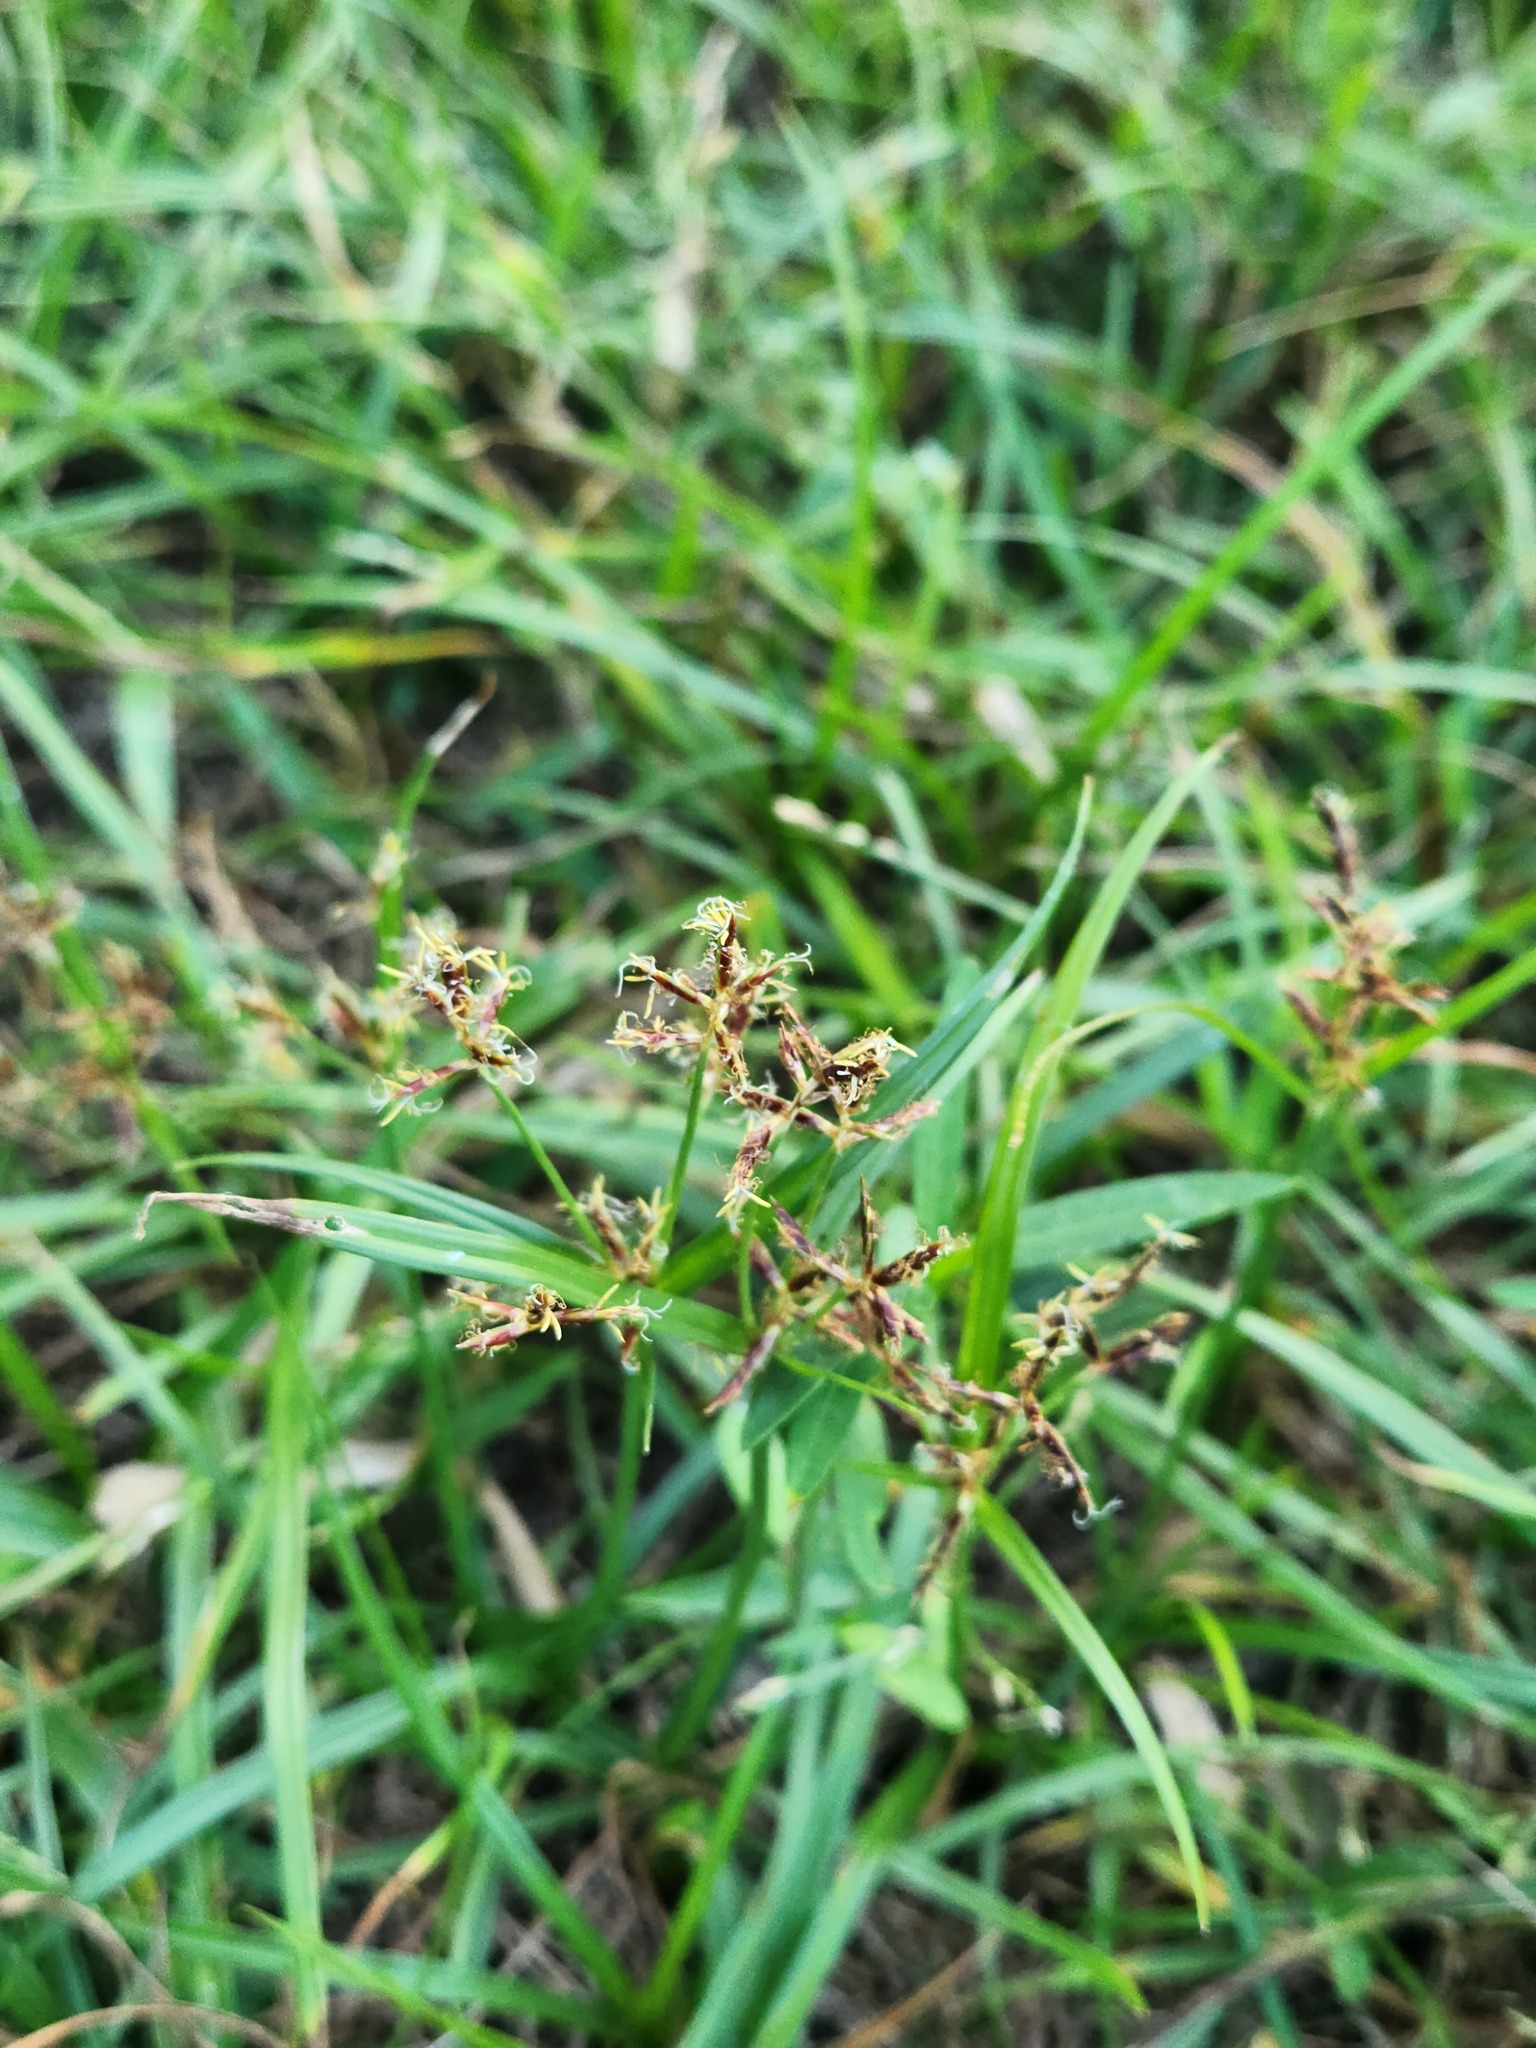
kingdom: Plantae
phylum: Tracheophyta
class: Liliopsida
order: Poales
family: Cyperaceae
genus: Cyperus
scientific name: Cyperus rotundus
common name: Nutgrass
